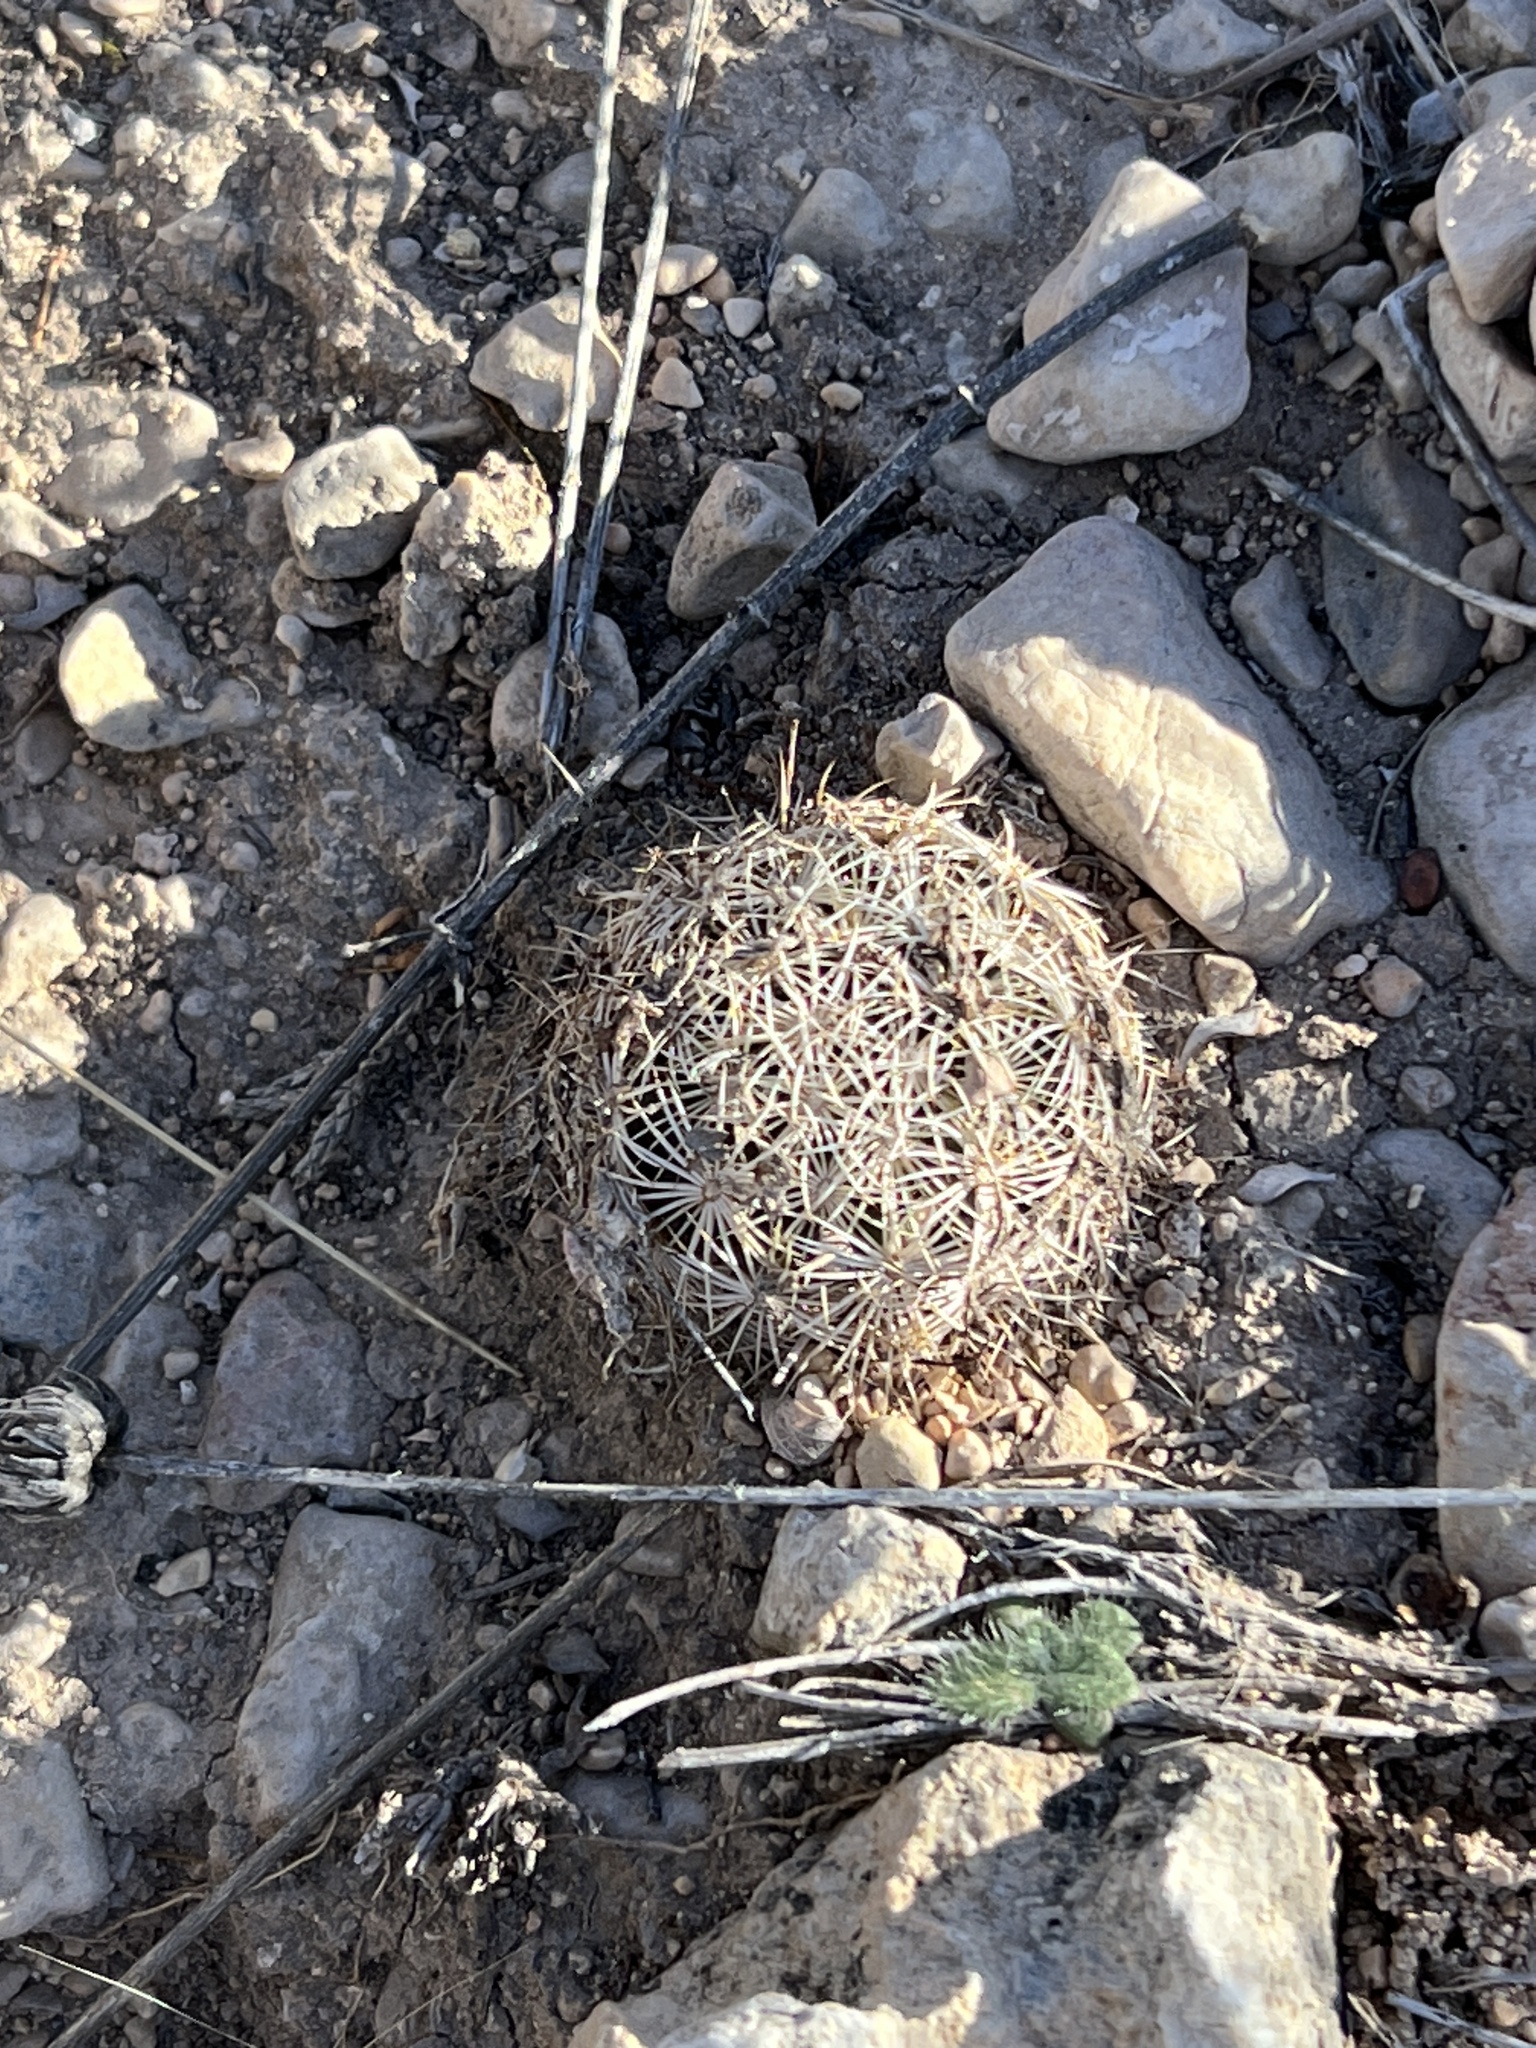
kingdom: Plantae
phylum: Tracheophyta
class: Magnoliopsida
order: Caryophyllales
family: Cactaceae
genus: Coryphantha
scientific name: Coryphantha echinus
